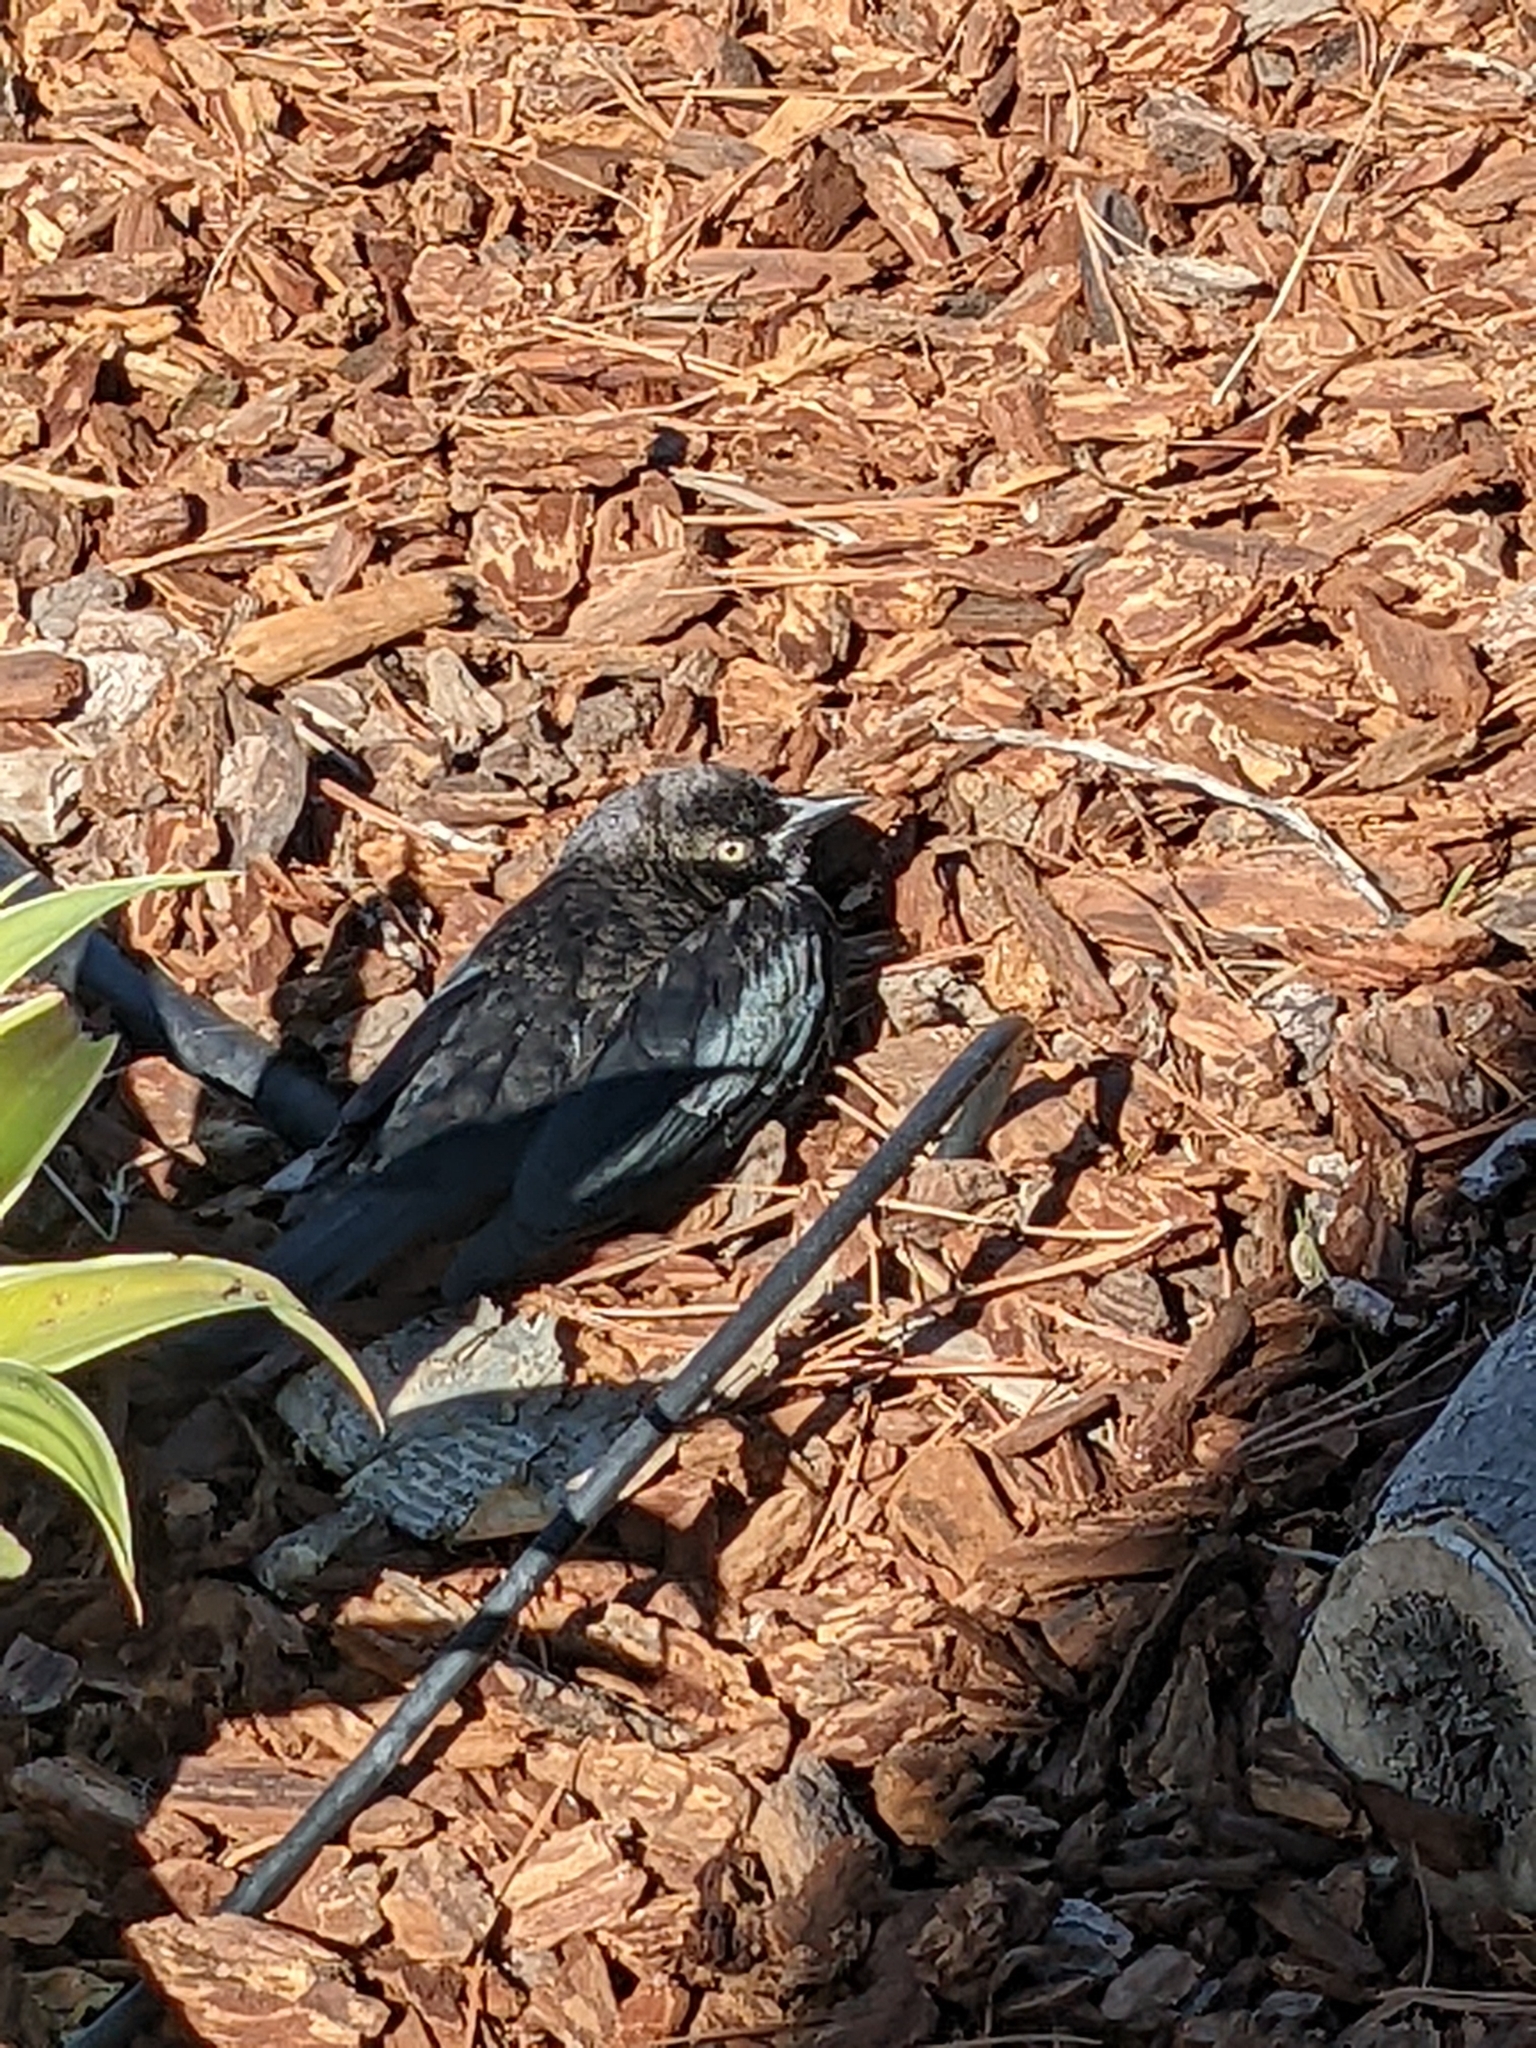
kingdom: Animalia
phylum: Chordata
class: Aves
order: Passeriformes
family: Icteridae
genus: Euphagus
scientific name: Euphagus cyanocephalus
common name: Brewer's blackbird
